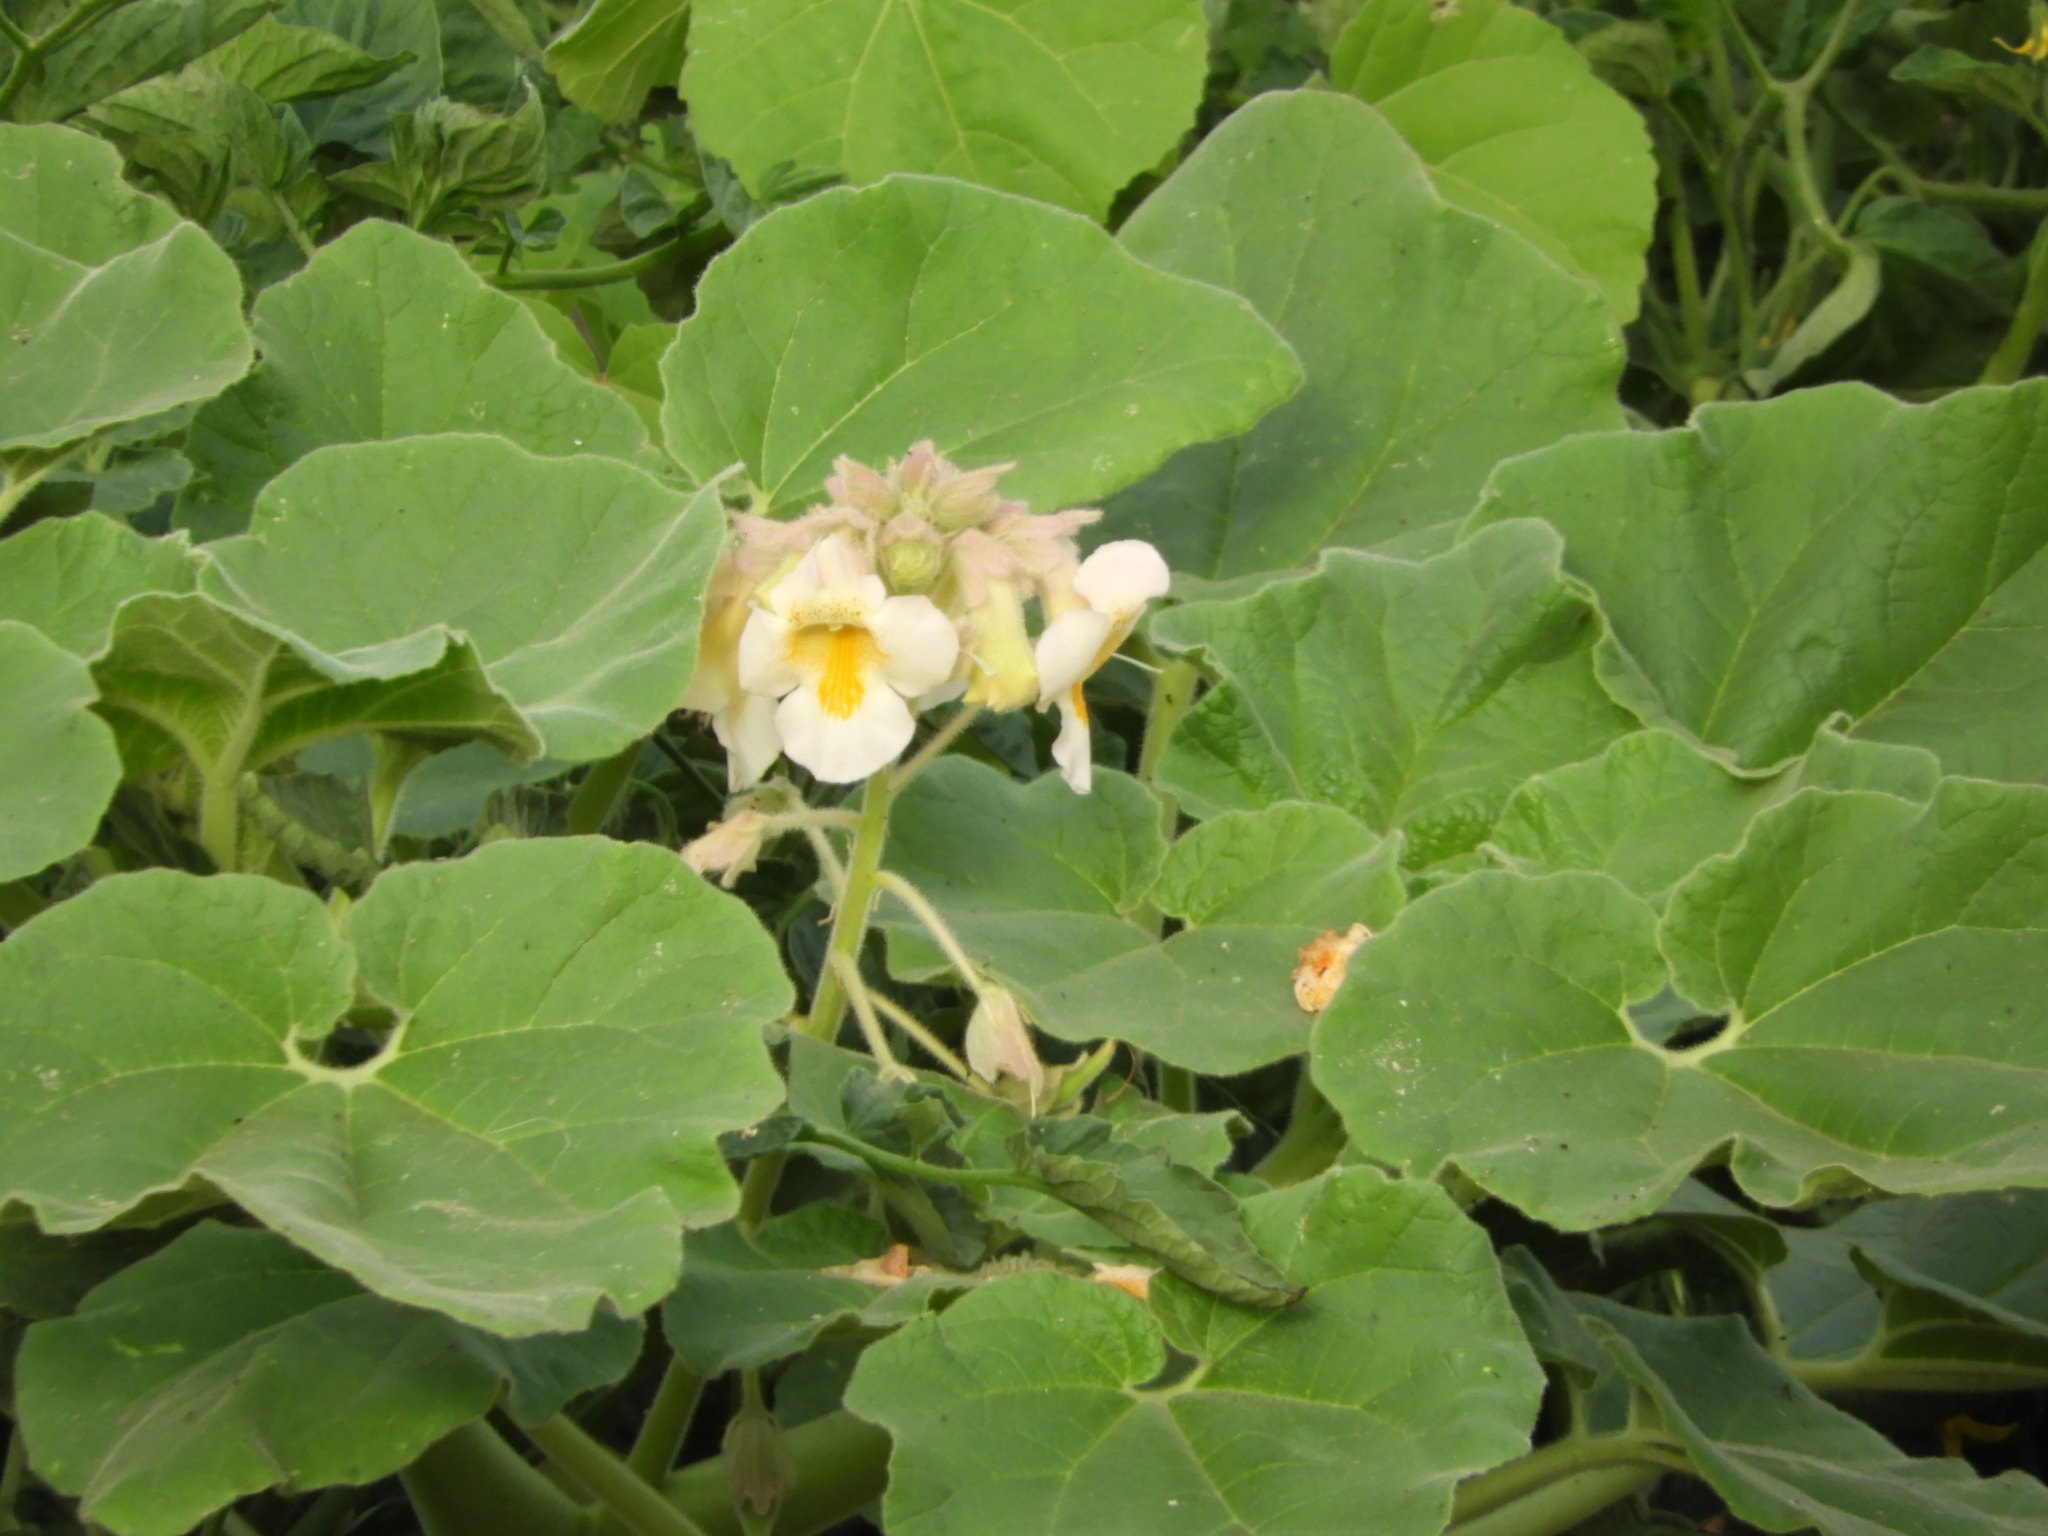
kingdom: Plantae
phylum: Tracheophyta
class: Magnoliopsida
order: Lamiales
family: Martyniaceae
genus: Proboscidea
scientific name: Proboscidea louisianica
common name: Elephant tusks
